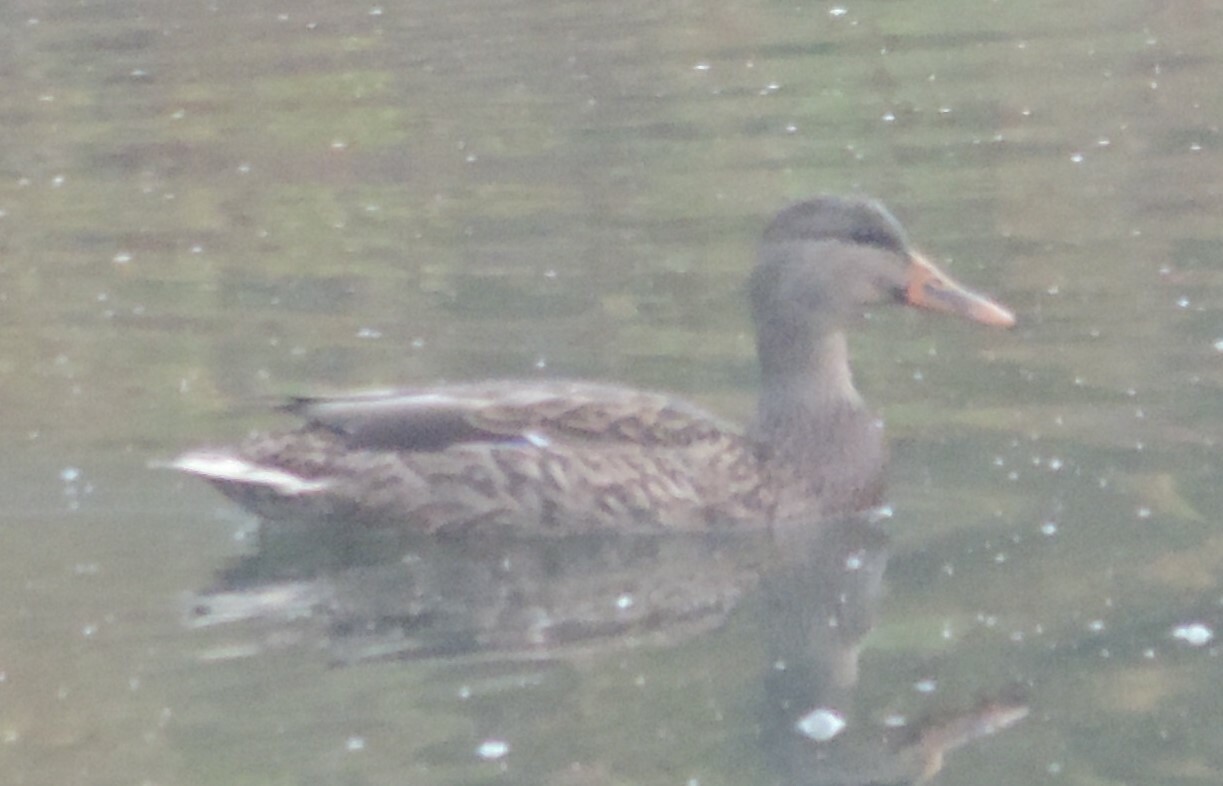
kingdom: Animalia
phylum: Chordata
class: Aves
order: Anseriformes
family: Anatidae
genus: Anas
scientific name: Anas platyrhynchos
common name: Mallard
